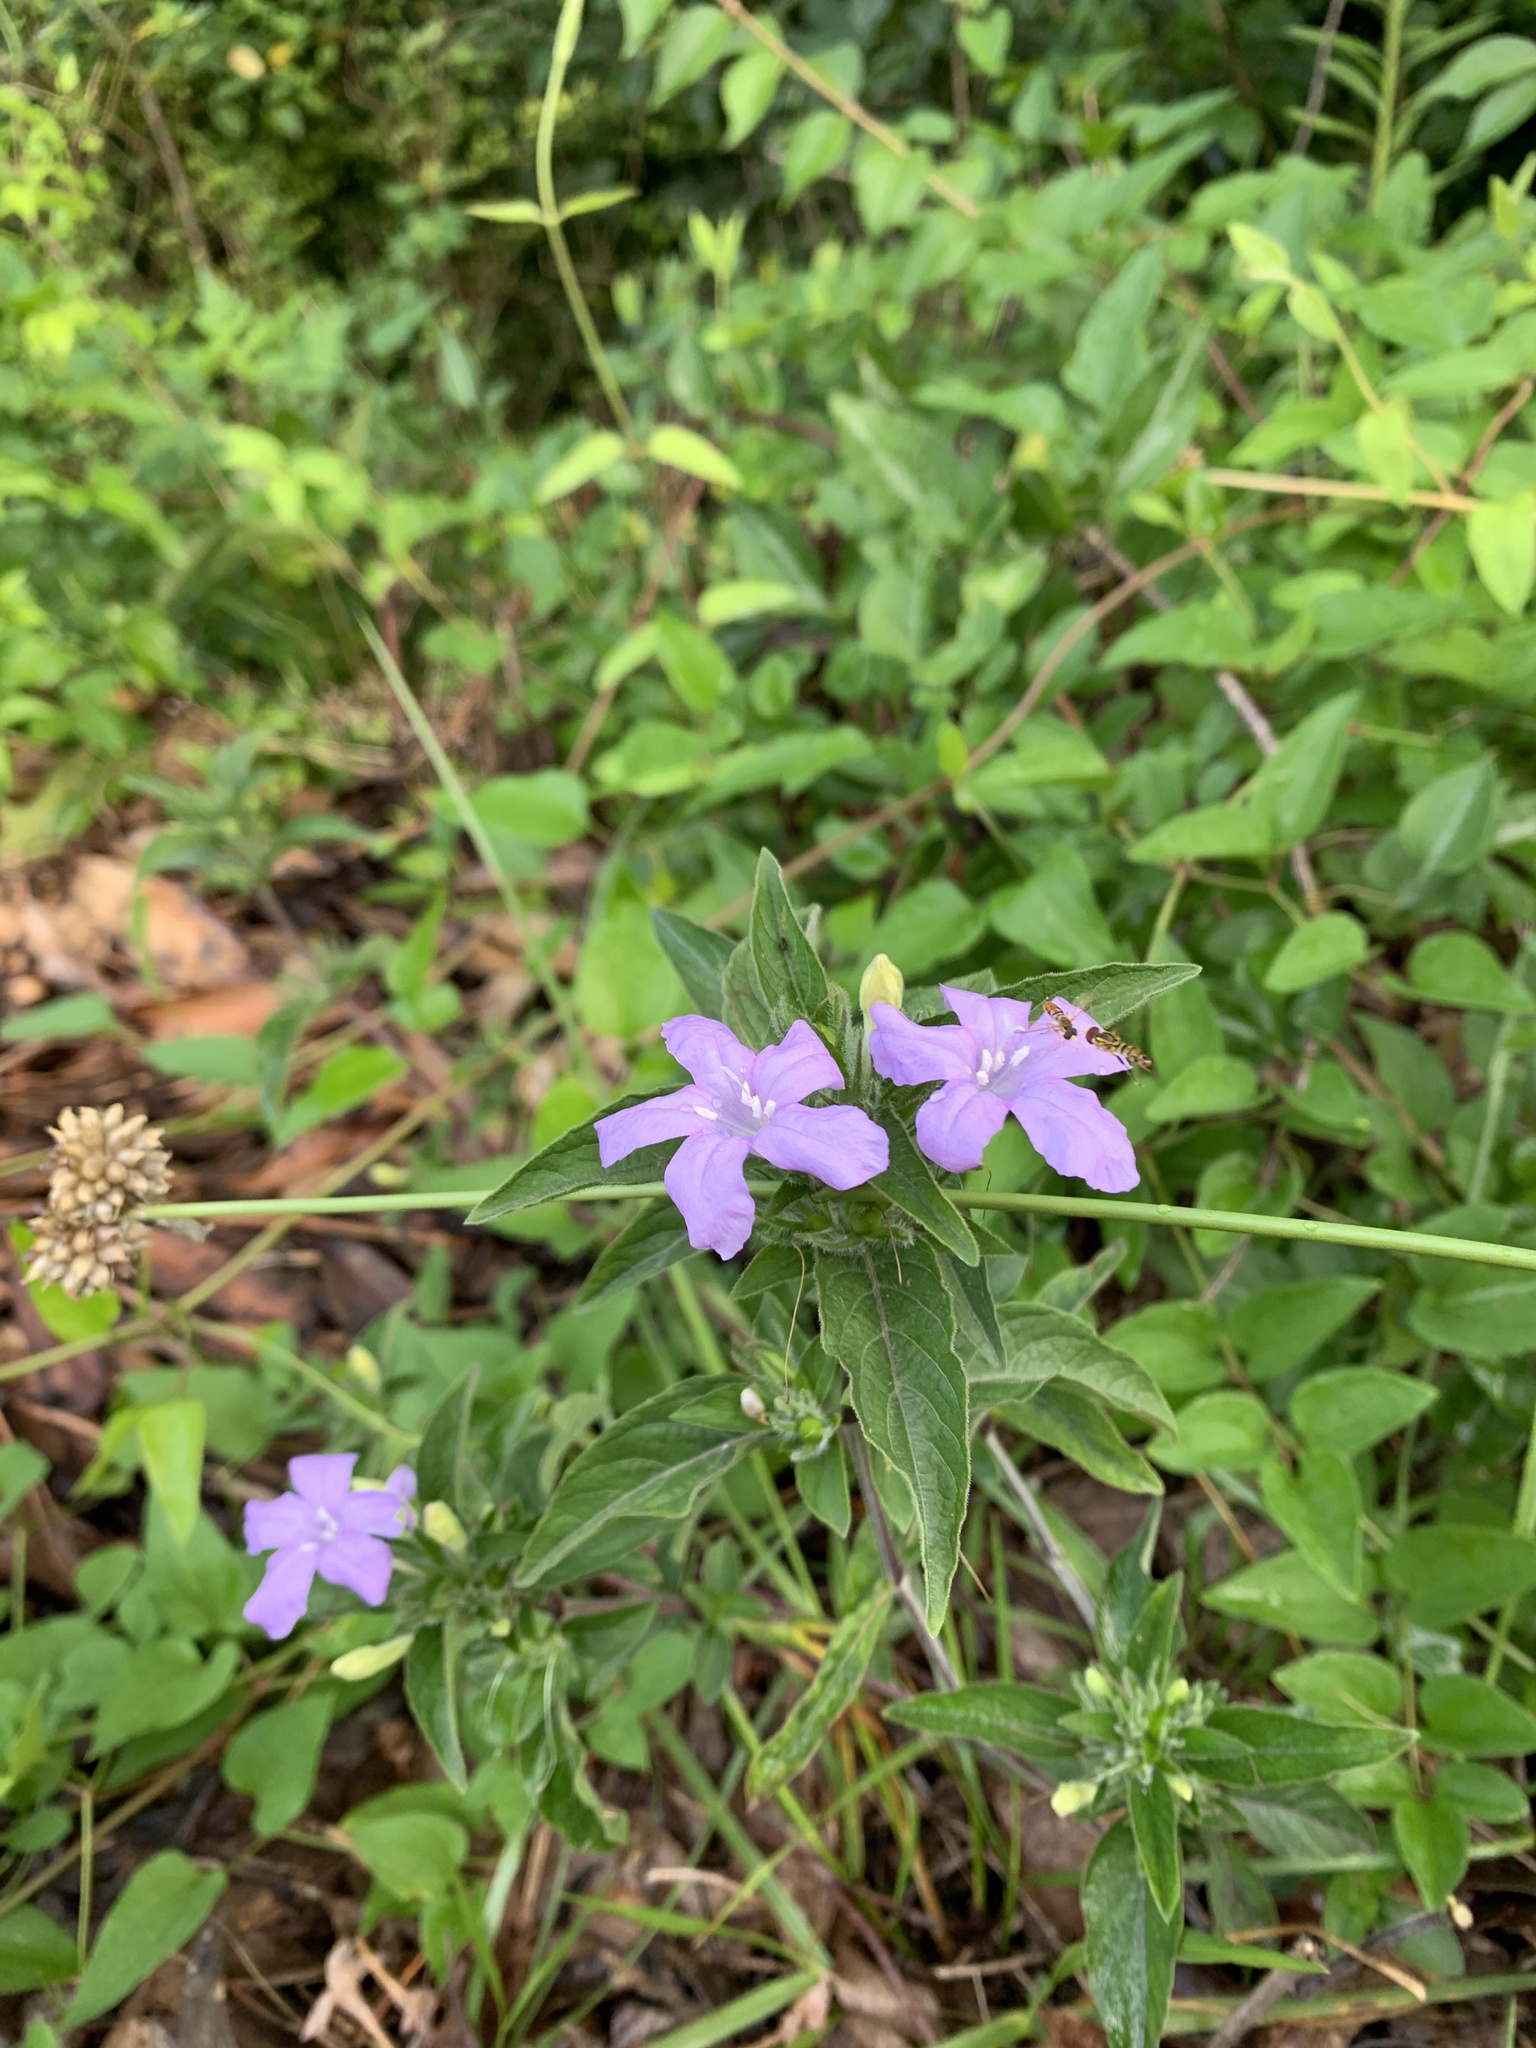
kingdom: Plantae
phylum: Tracheophyta
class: Magnoliopsida
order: Lamiales
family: Acanthaceae
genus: Ruellia
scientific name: Ruellia caroliniensis
